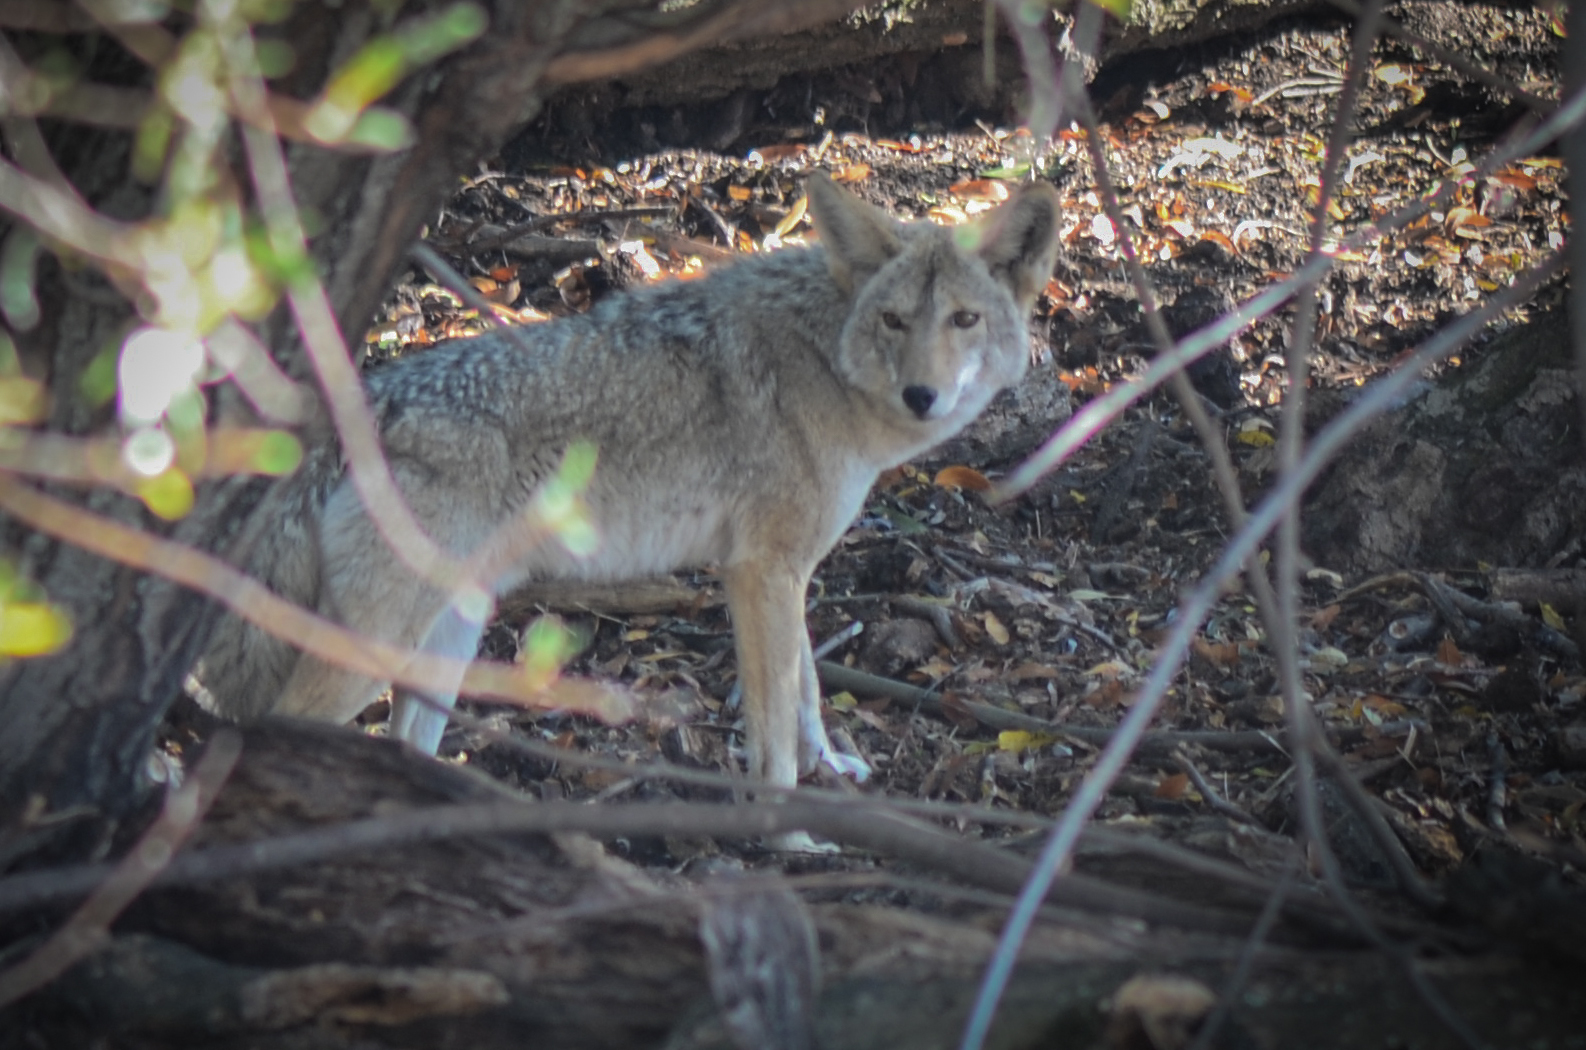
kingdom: Animalia
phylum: Chordata
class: Mammalia
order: Carnivora
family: Canidae
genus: Canis
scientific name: Canis latrans
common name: Coyote
